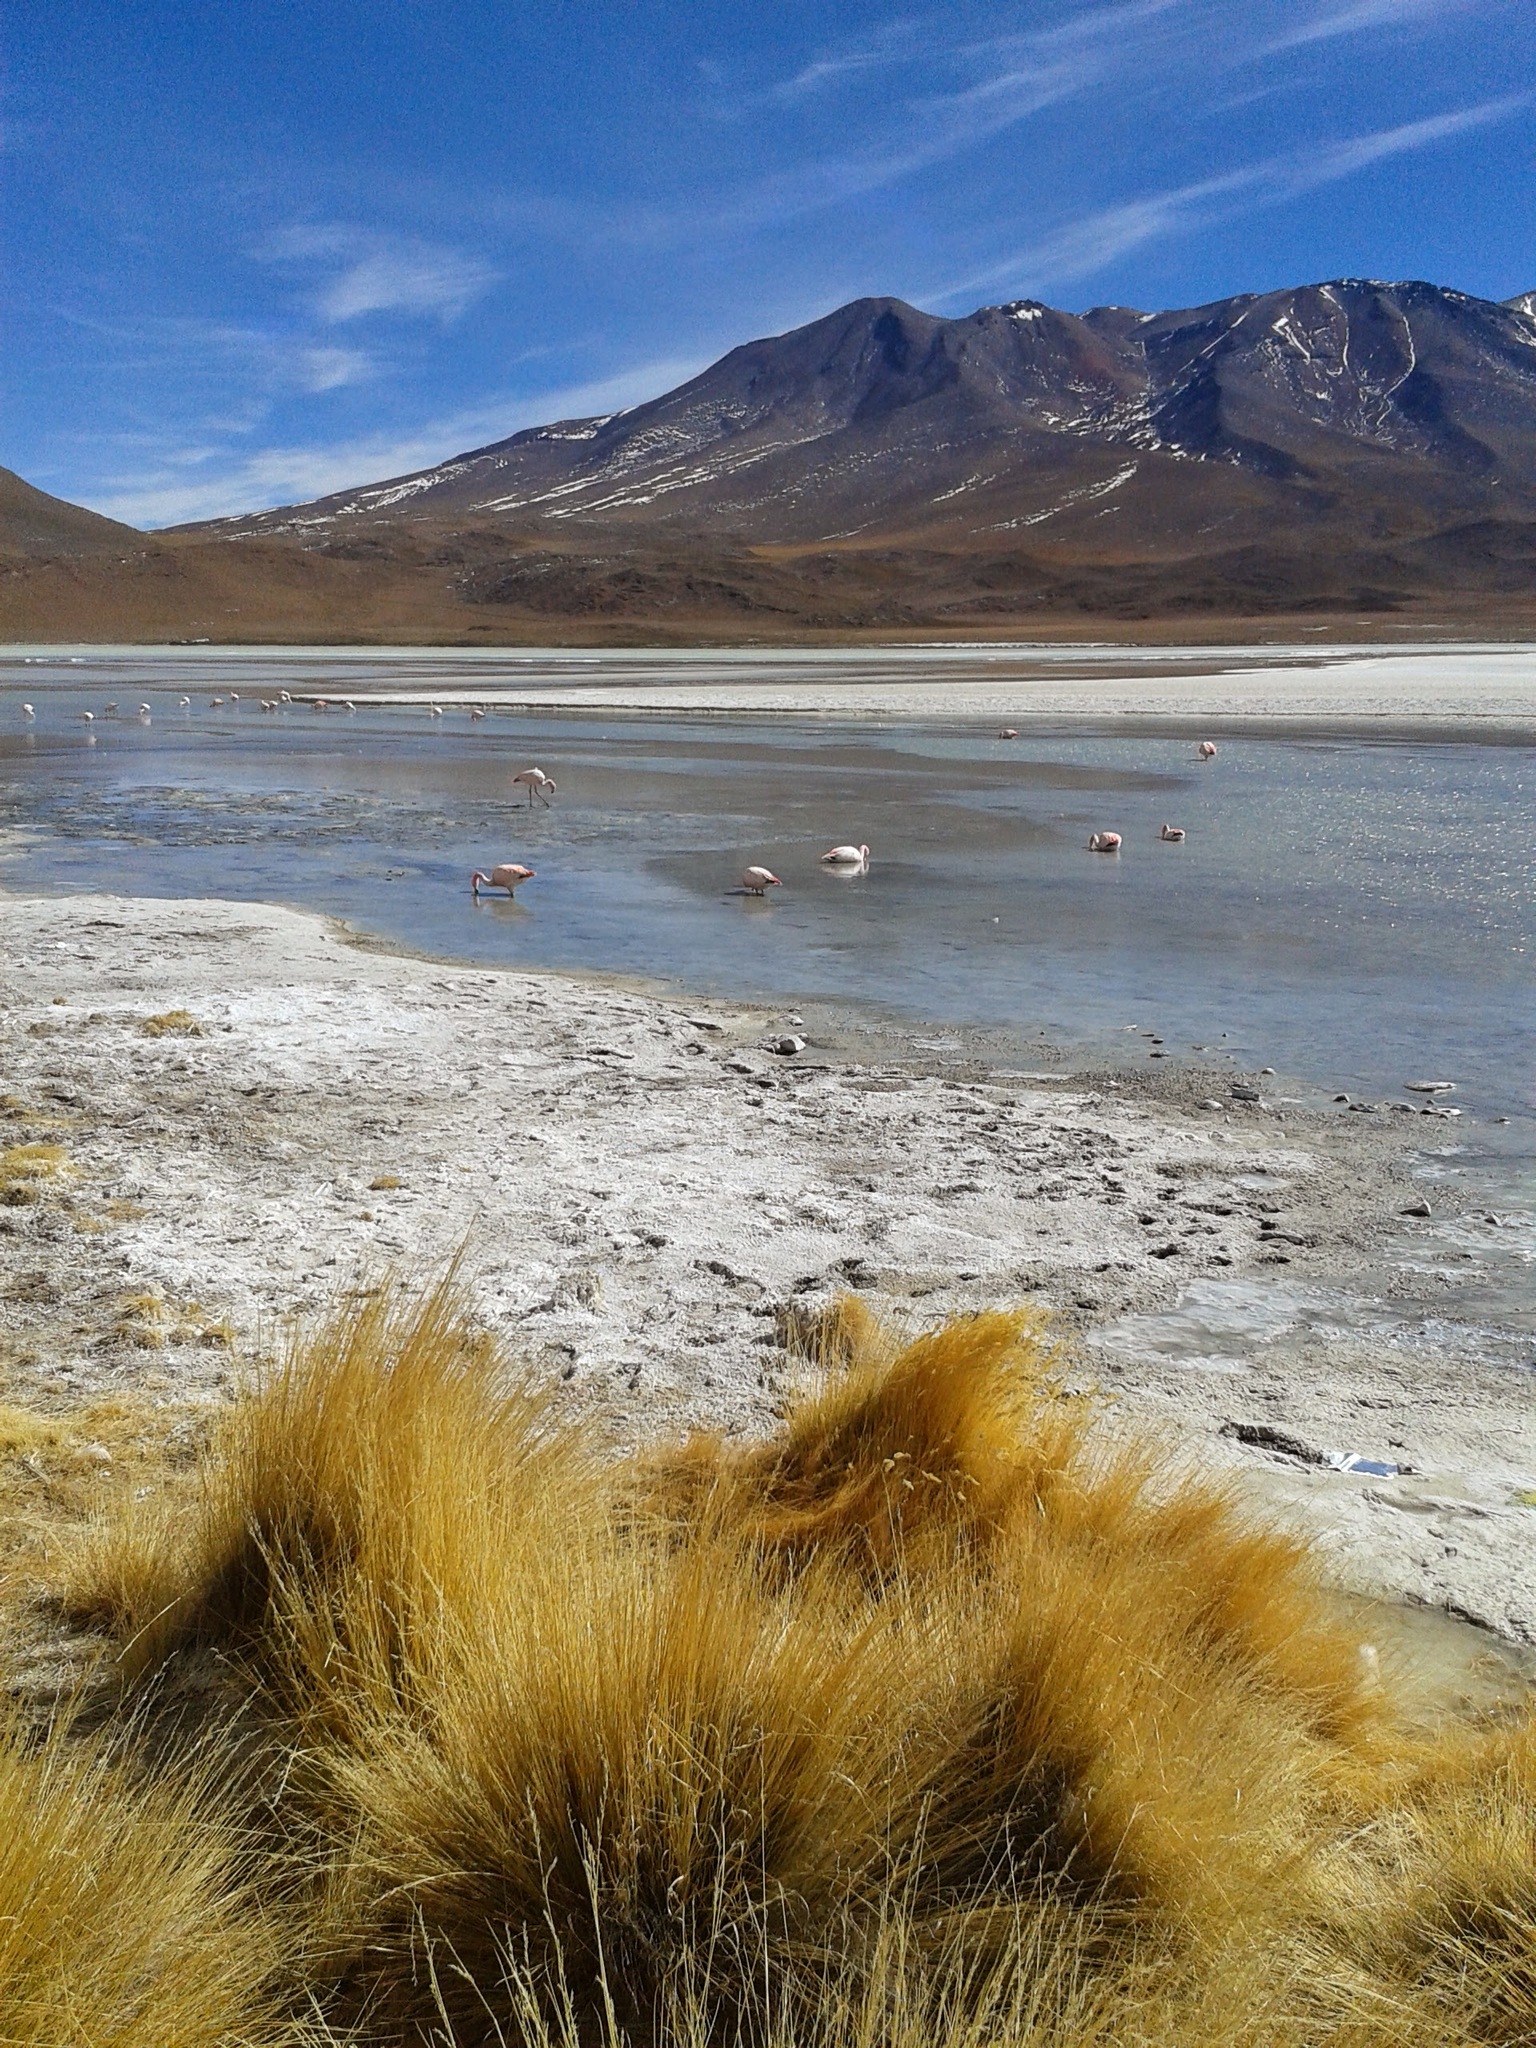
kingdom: Animalia
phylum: Chordata
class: Aves
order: Phoenicopteriformes
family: Phoenicopteridae
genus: Phoenicoparrus
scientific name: Phoenicoparrus jamesi
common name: James's flamingo
